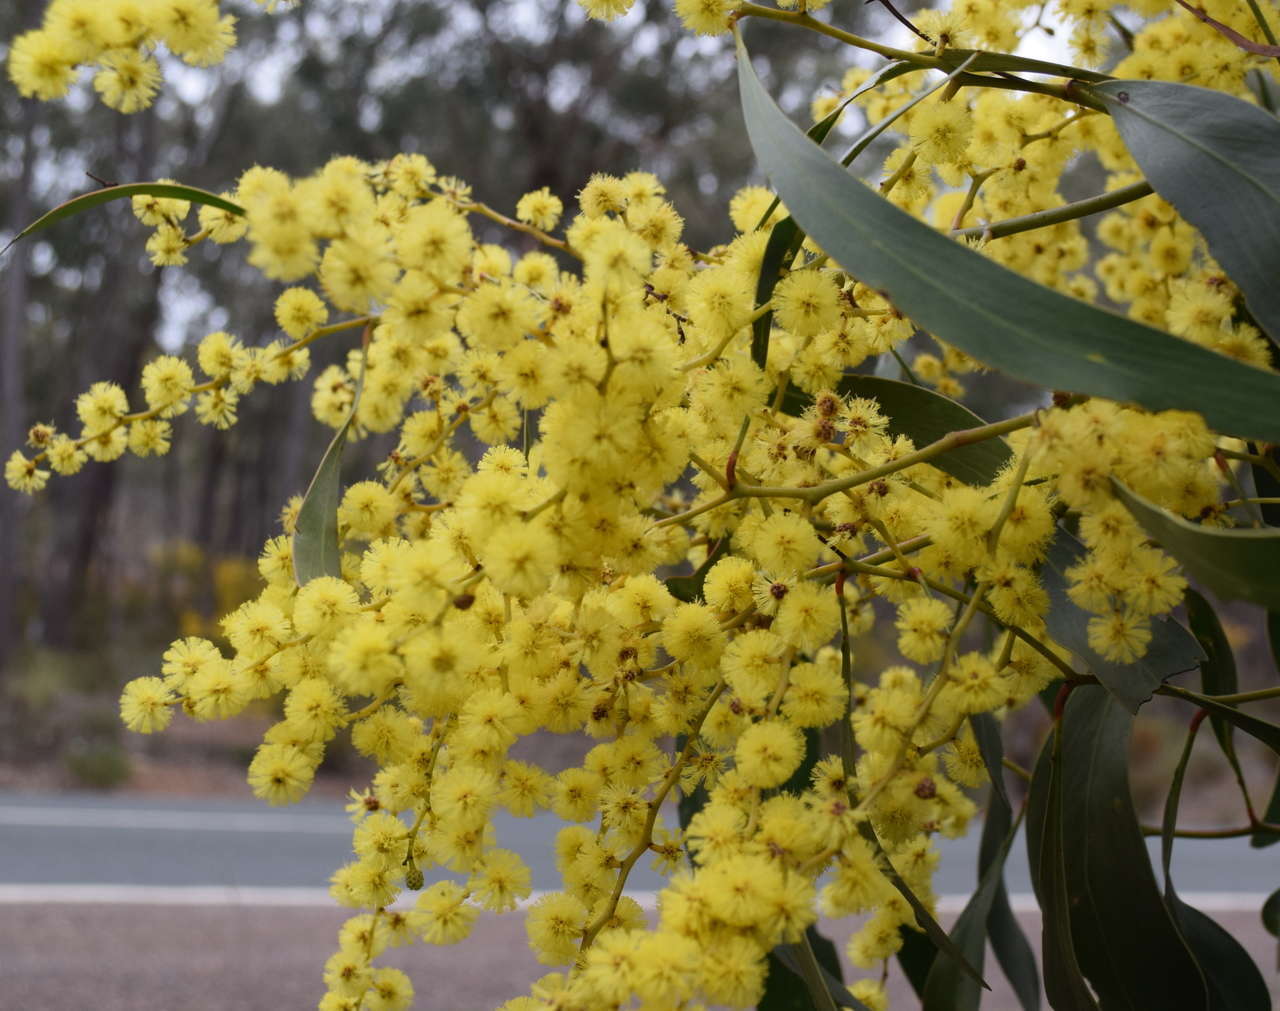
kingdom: Plantae
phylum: Tracheophyta
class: Magnoliopsida
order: Fabales
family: Fabaceae
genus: Acacia
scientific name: Acacia pycnantha
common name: Golden wattle
